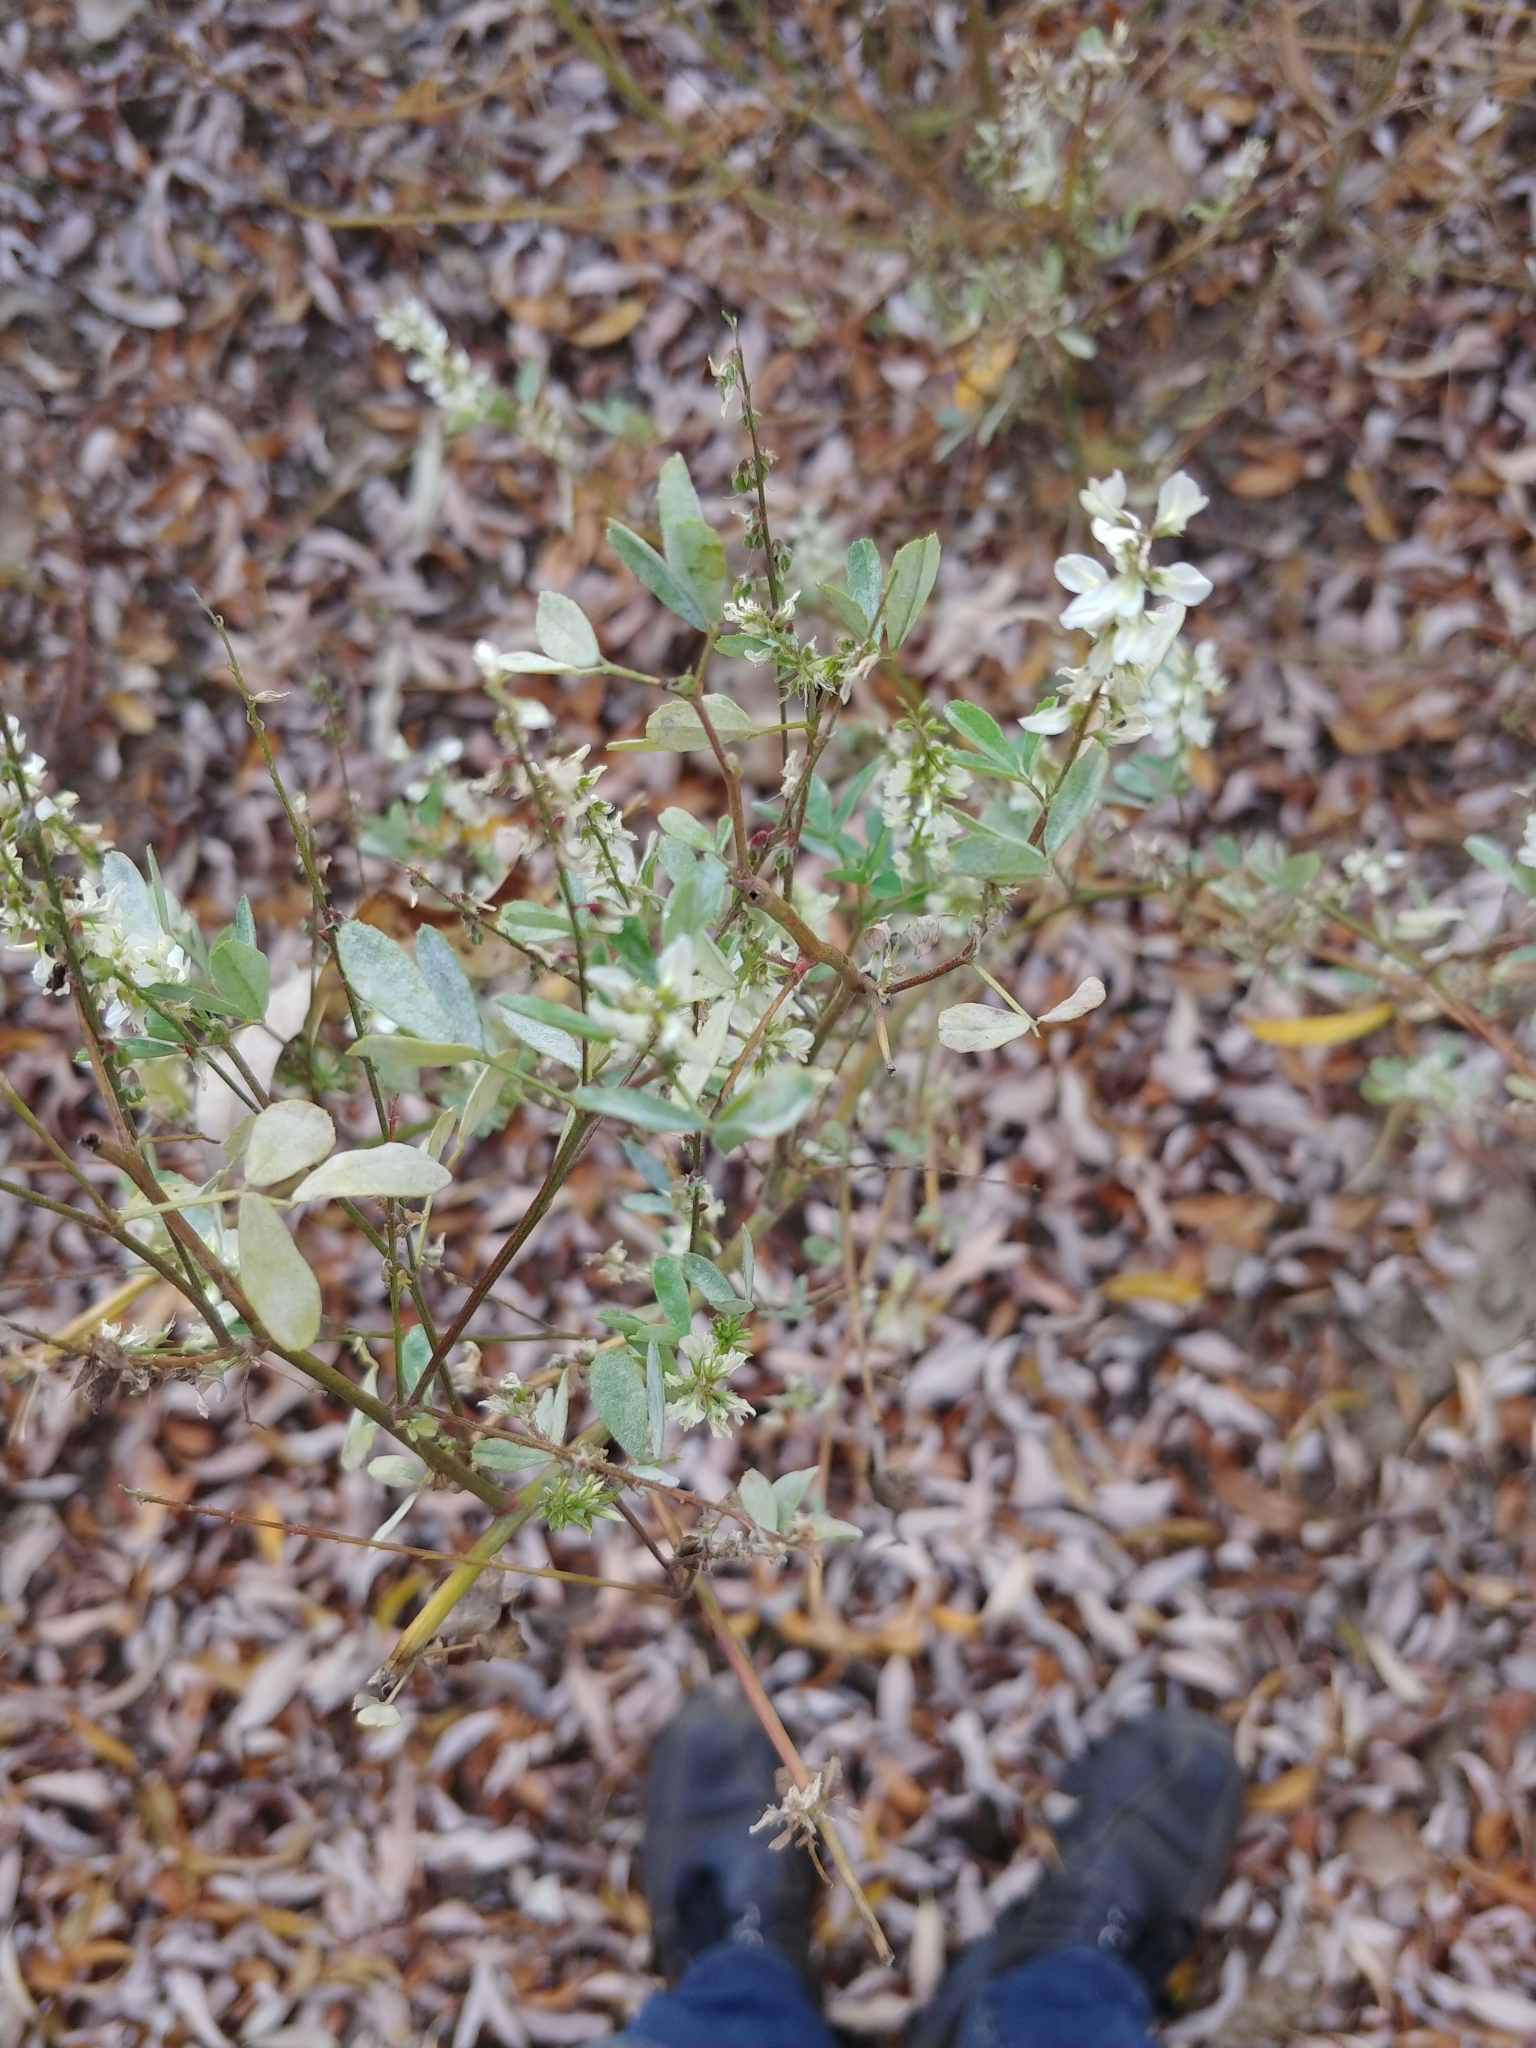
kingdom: Plantae
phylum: Tracheophyta
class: Magnoliopsida
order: Fabales
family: Fabaceae
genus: Melilotus
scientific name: Melilotus albus
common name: White melilot
